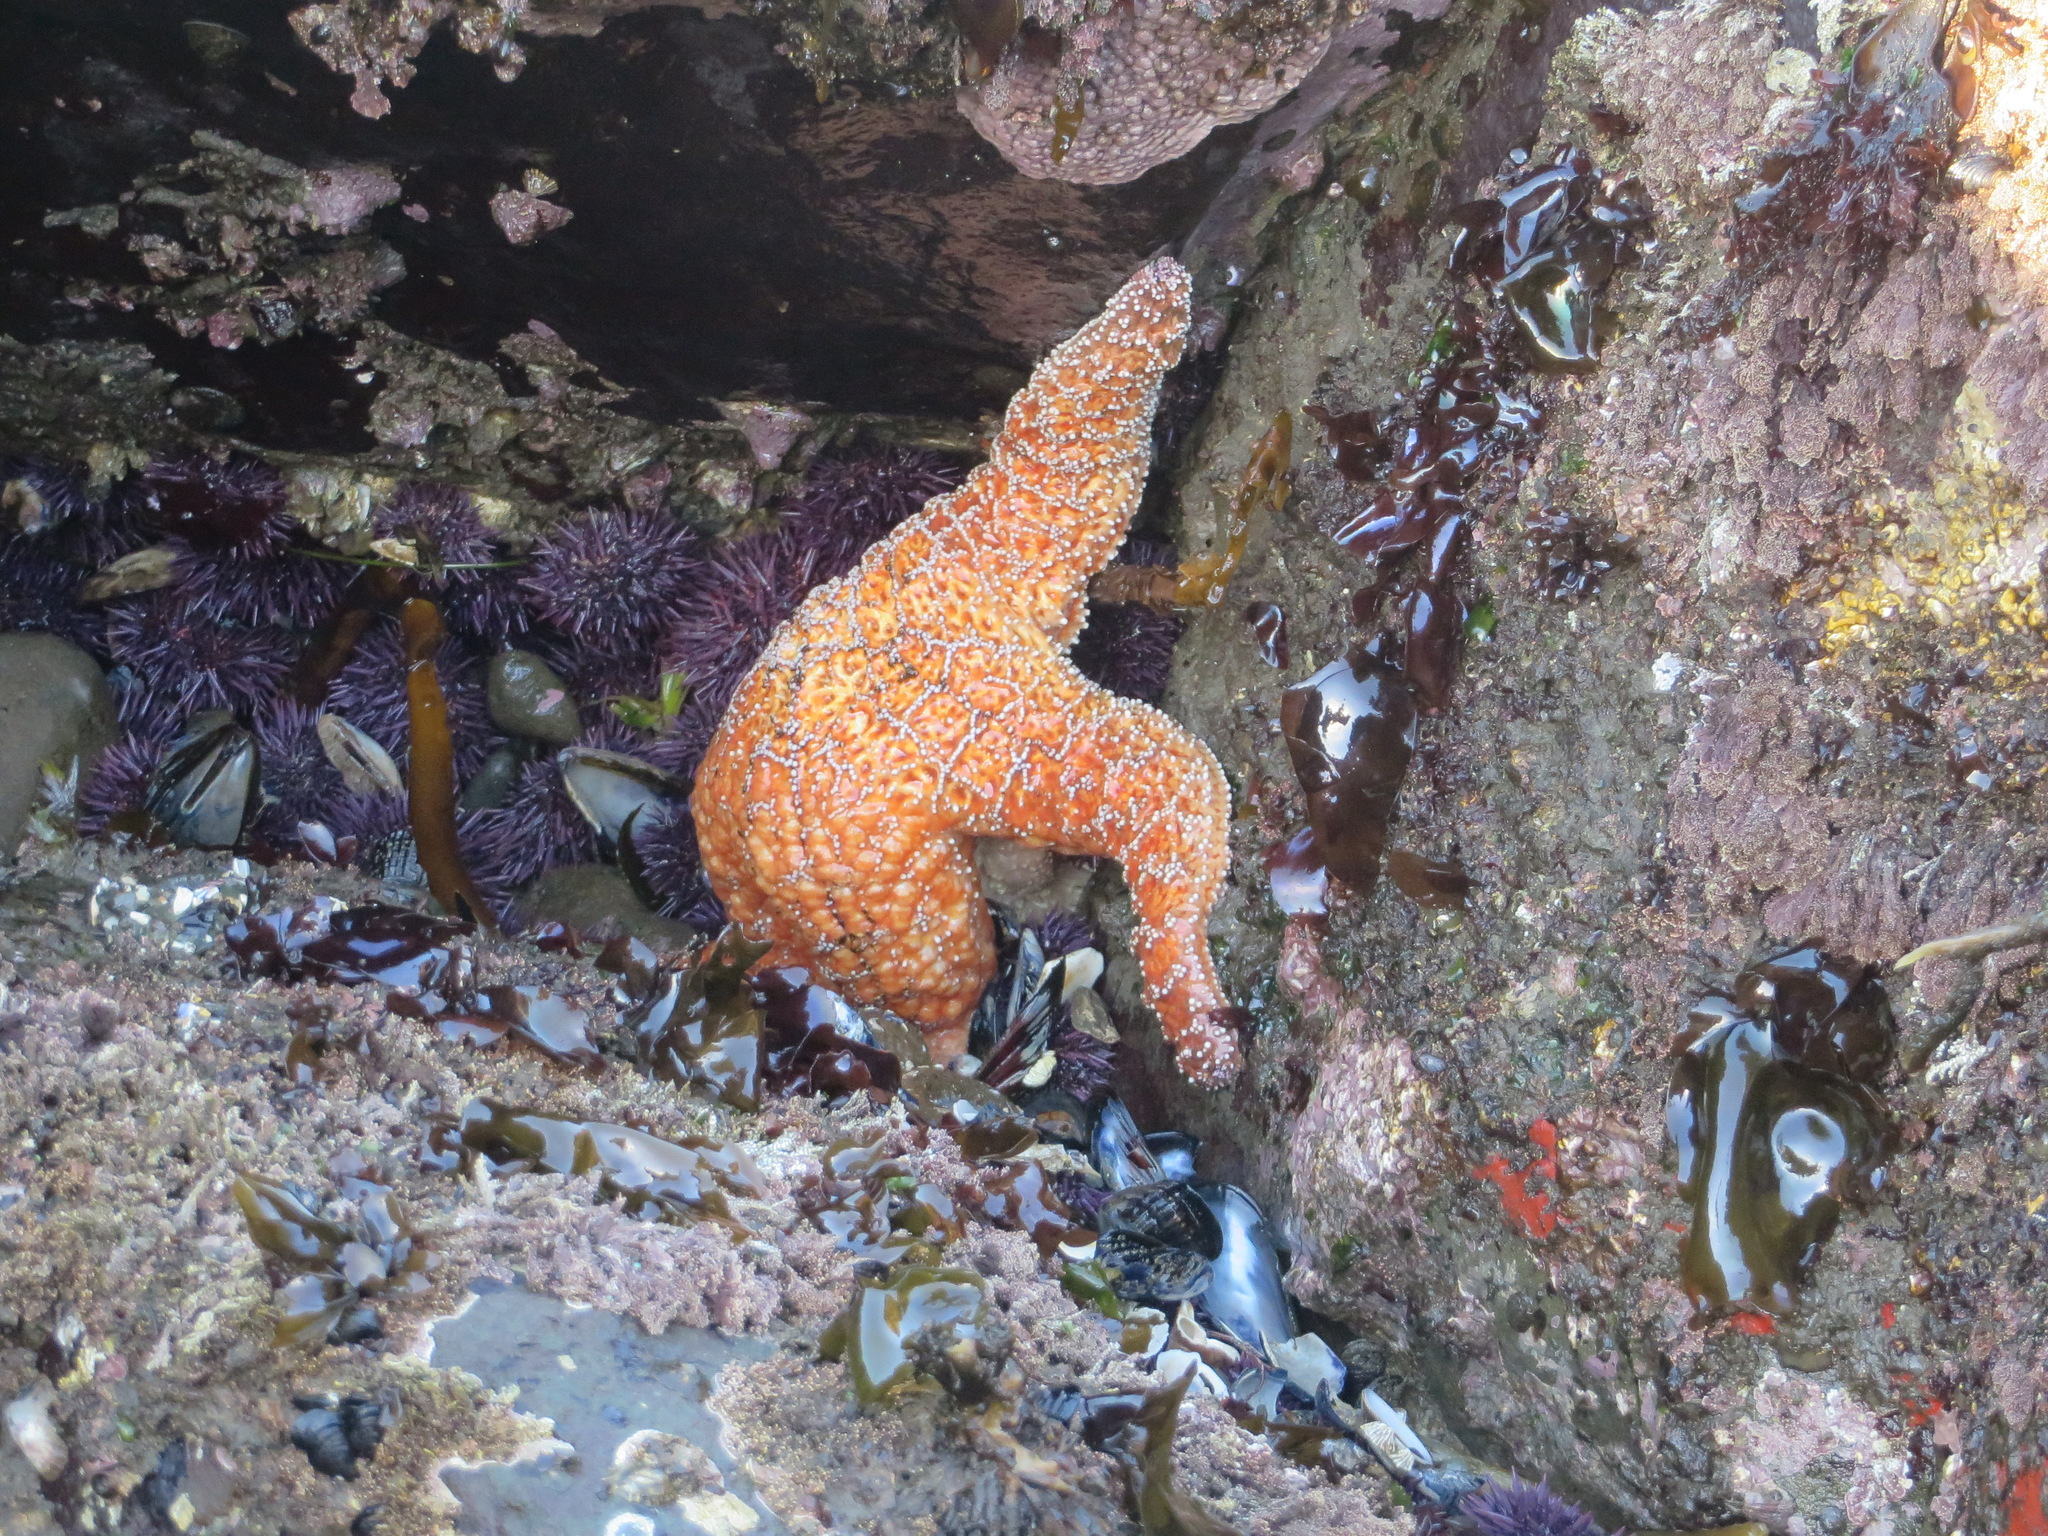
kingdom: Animalia
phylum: Echinodermata
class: Asteroidea
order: Forcipulatida
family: Asteriidae
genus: Pisaster
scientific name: Pisaster ochraceus
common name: Ochre stars
